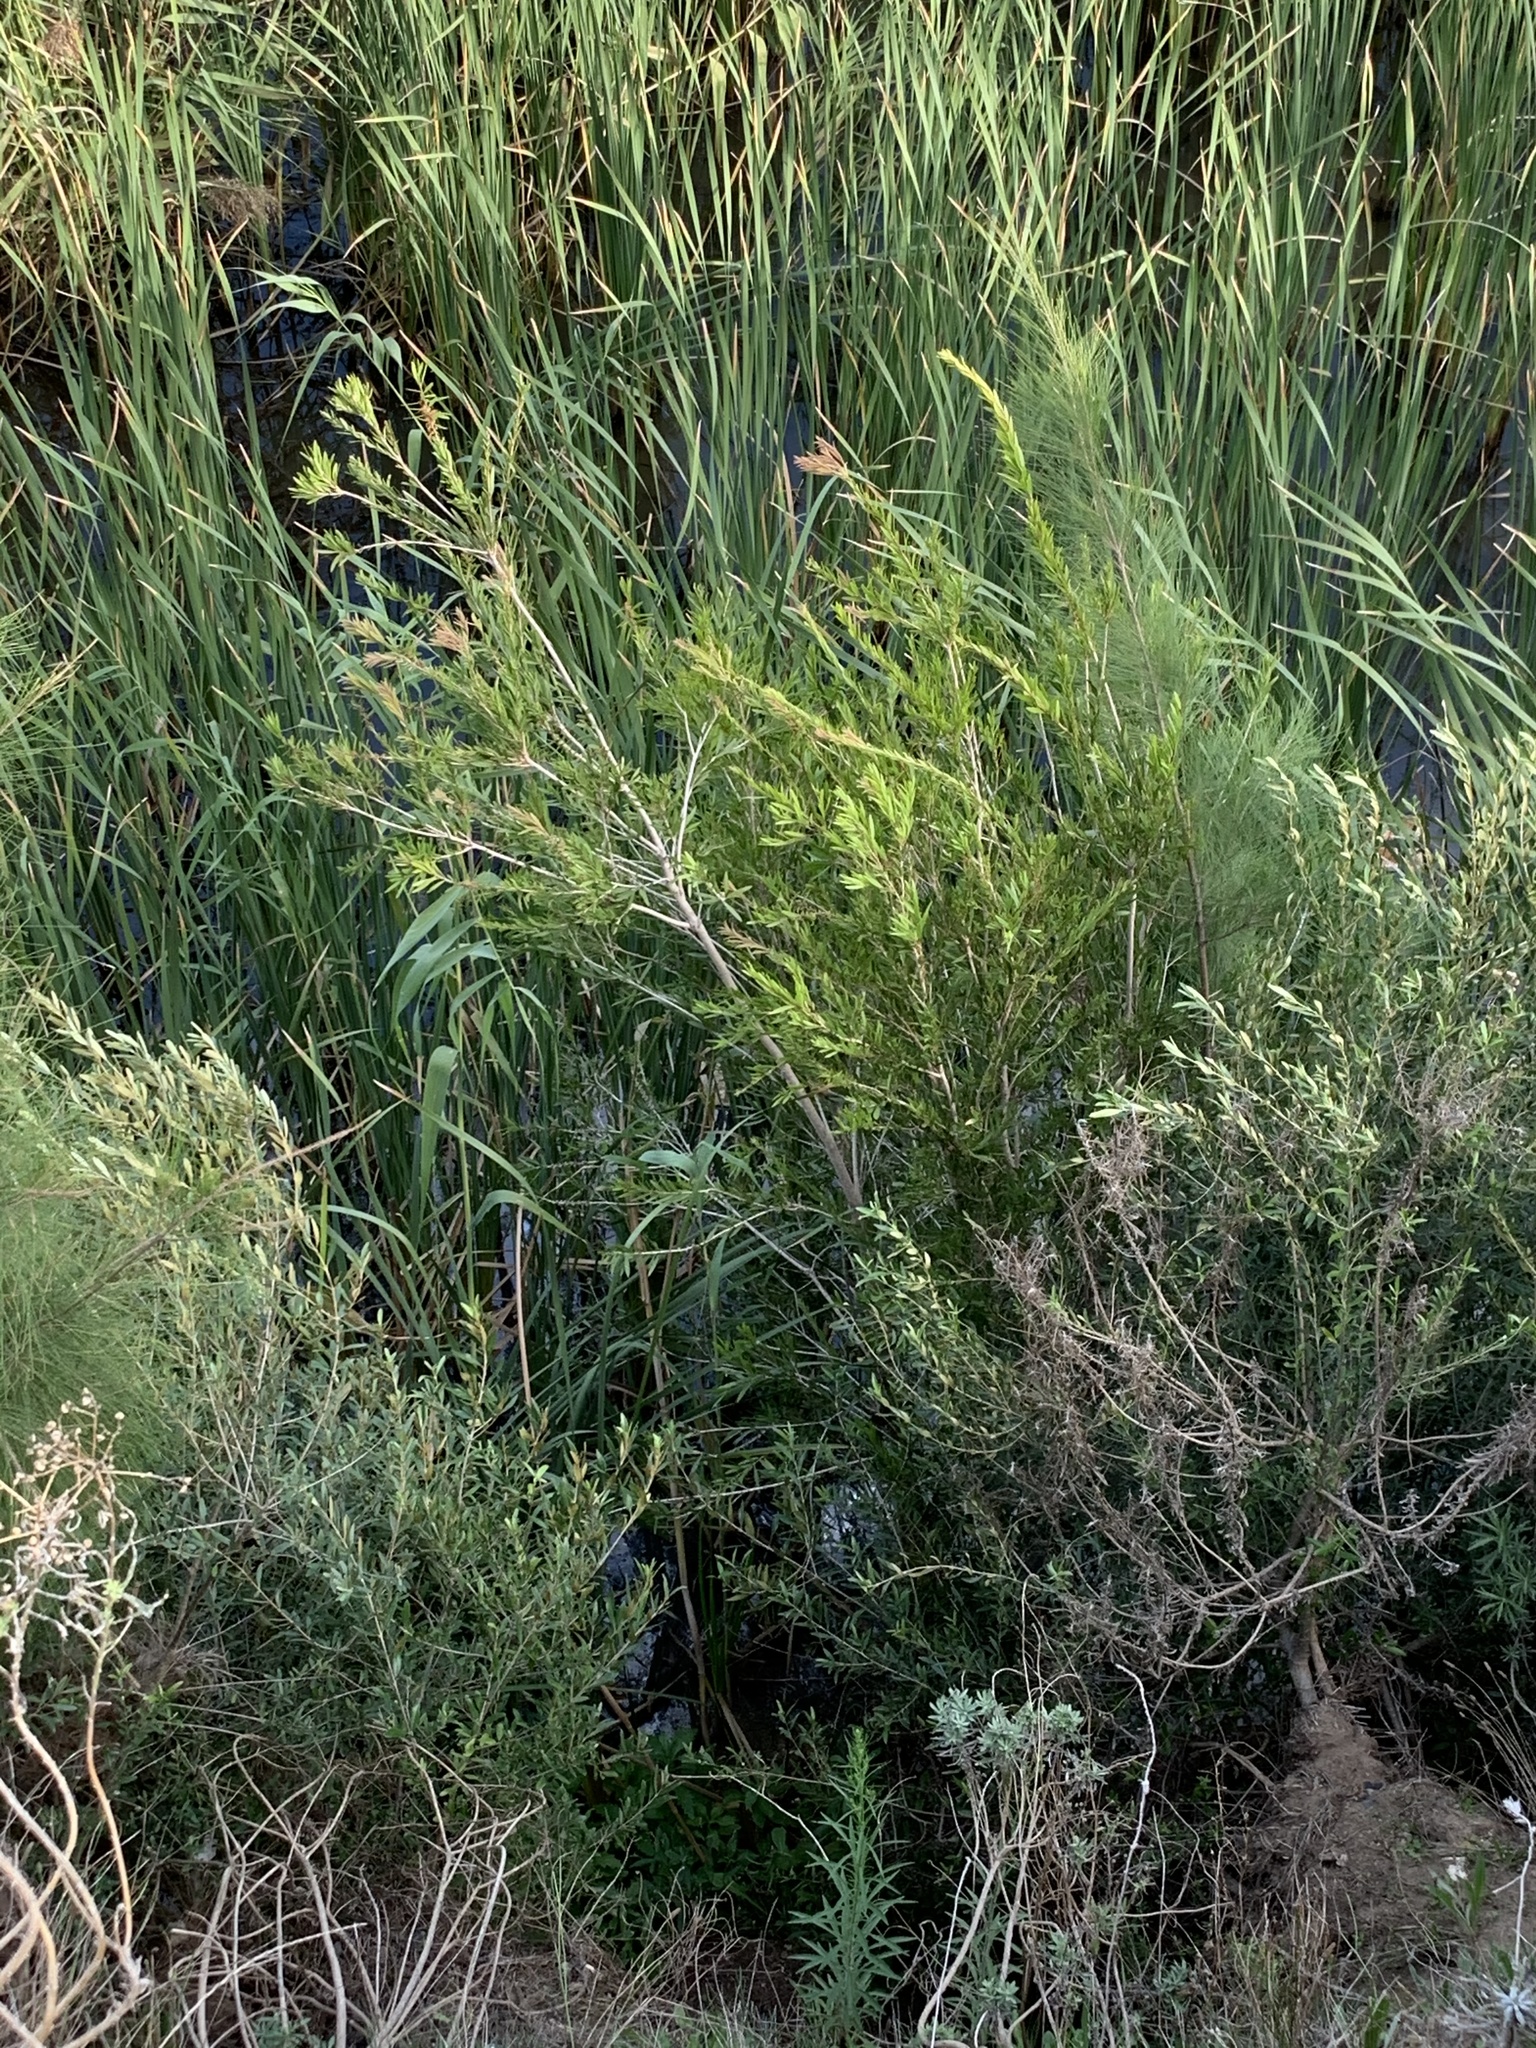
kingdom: Plantae
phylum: Tracheophyta
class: Magnoliopsida
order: Myrtales
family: Myrtaceae
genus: Callistemon
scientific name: Callistemon viminalis
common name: Drooping bottlebrush
